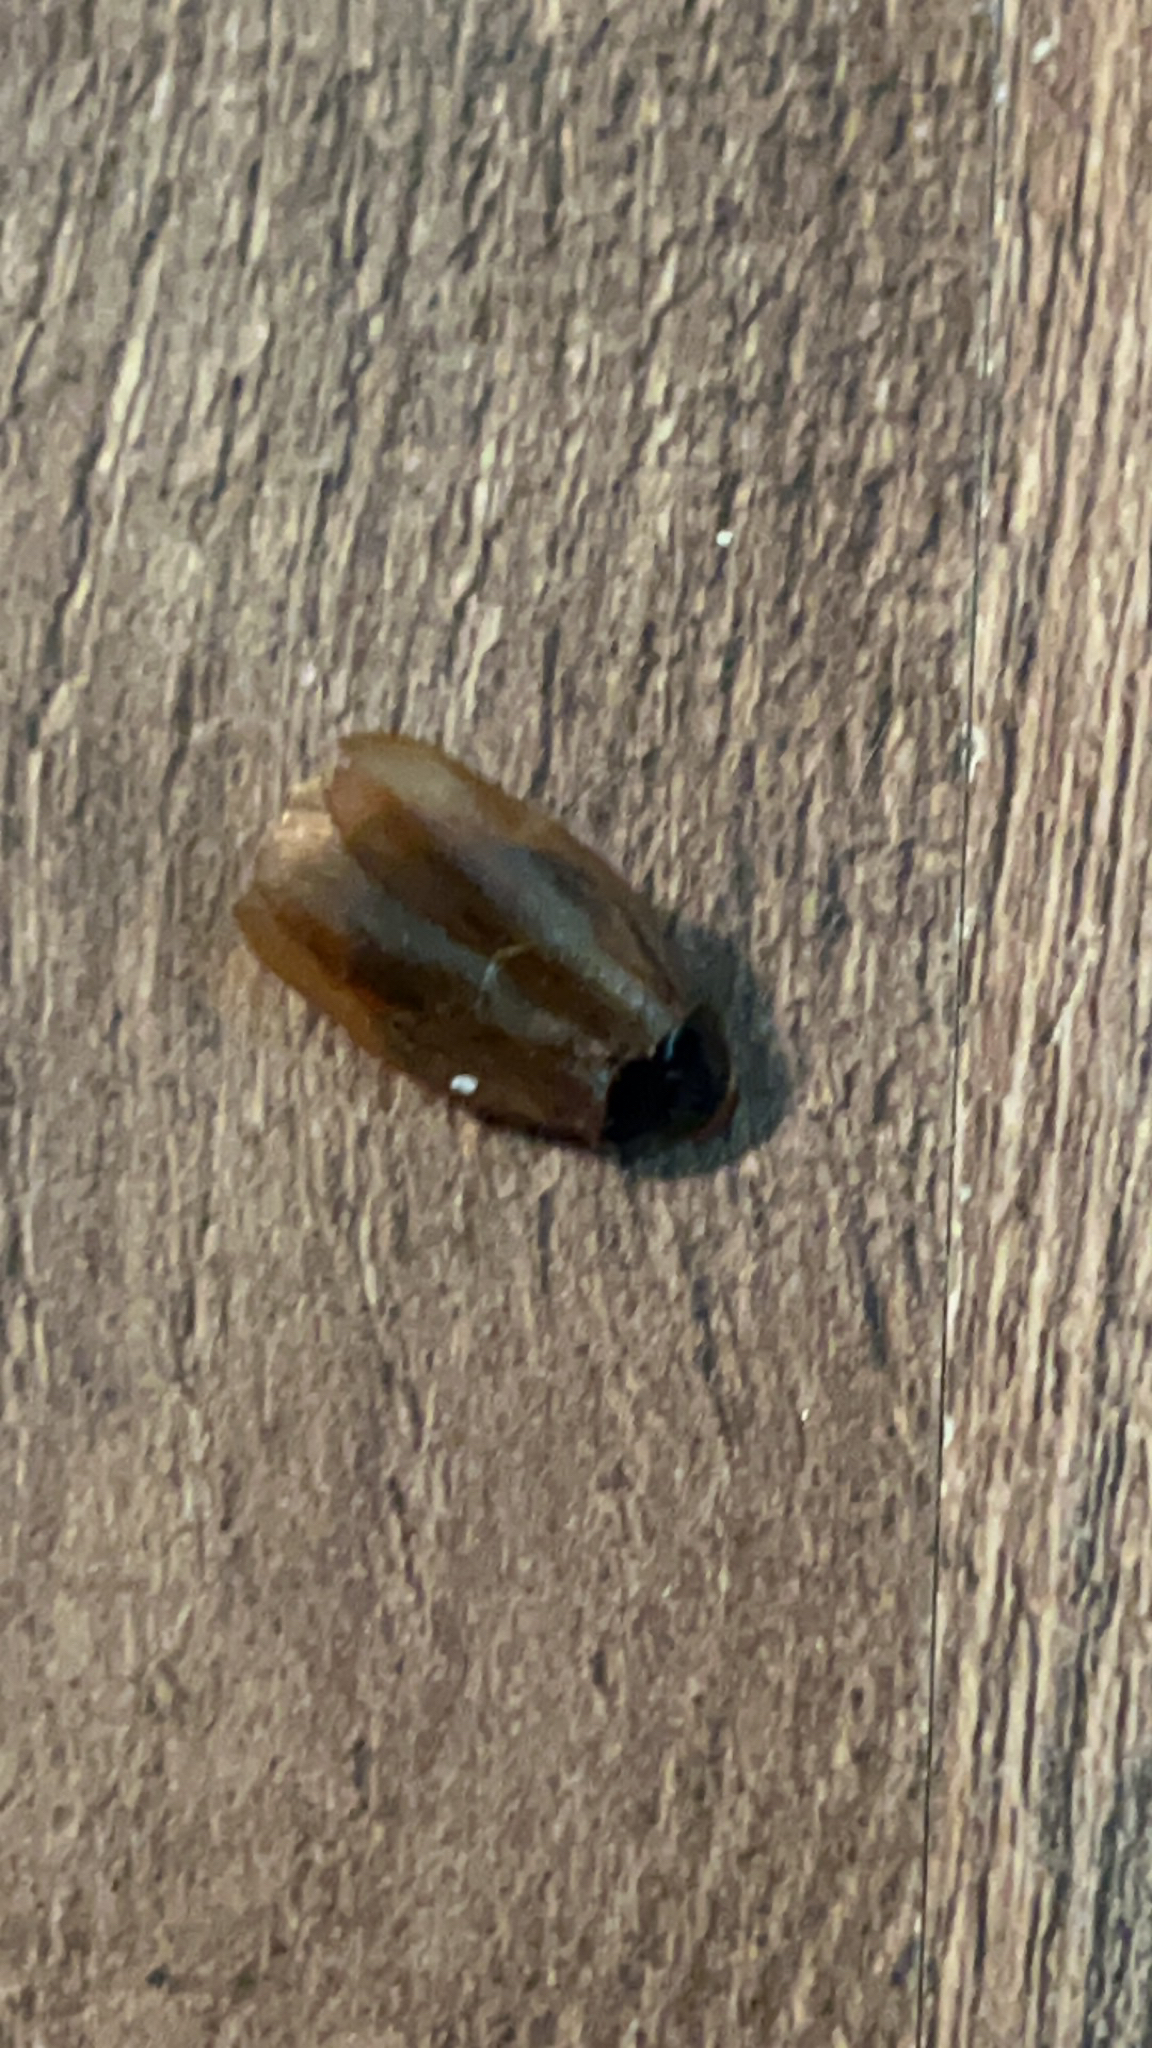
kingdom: Animalia
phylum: Arthropoda
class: Insecta
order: Blattodea
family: Blaberidae
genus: Pycnoscelus
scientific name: Pycnoscelus surinamensis
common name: Surinam cockroach
